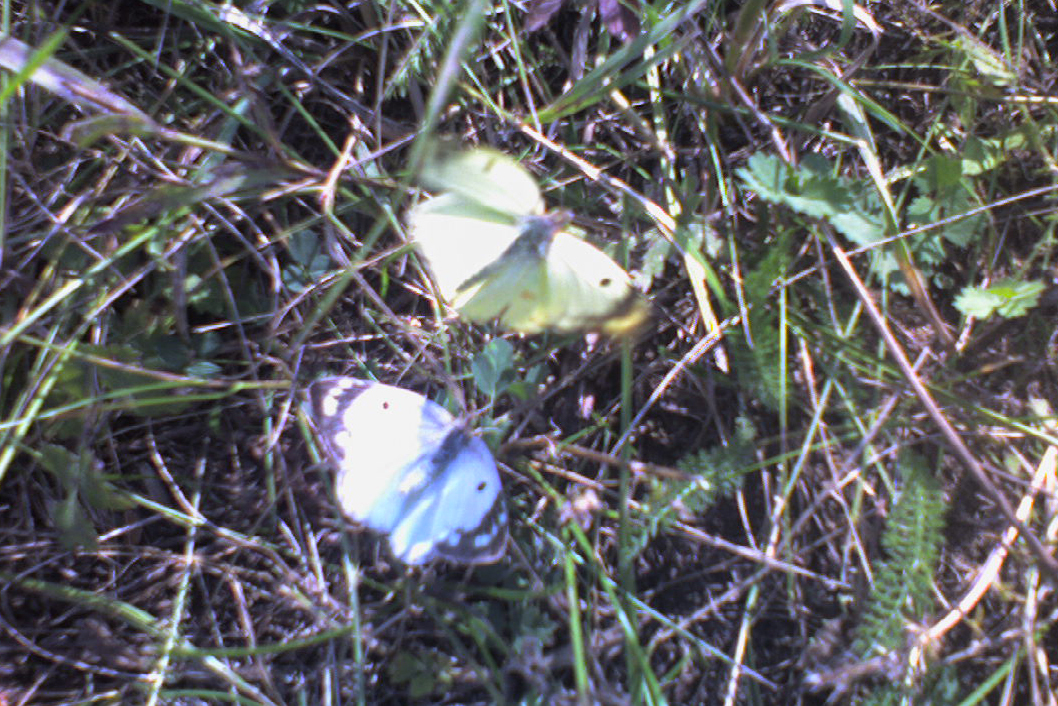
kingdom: Animalia
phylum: Arthropoda
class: Insecta
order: Lepidoptera
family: Pieridae
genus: Colias
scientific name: Colias hyale
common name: Pale clouded yellow
